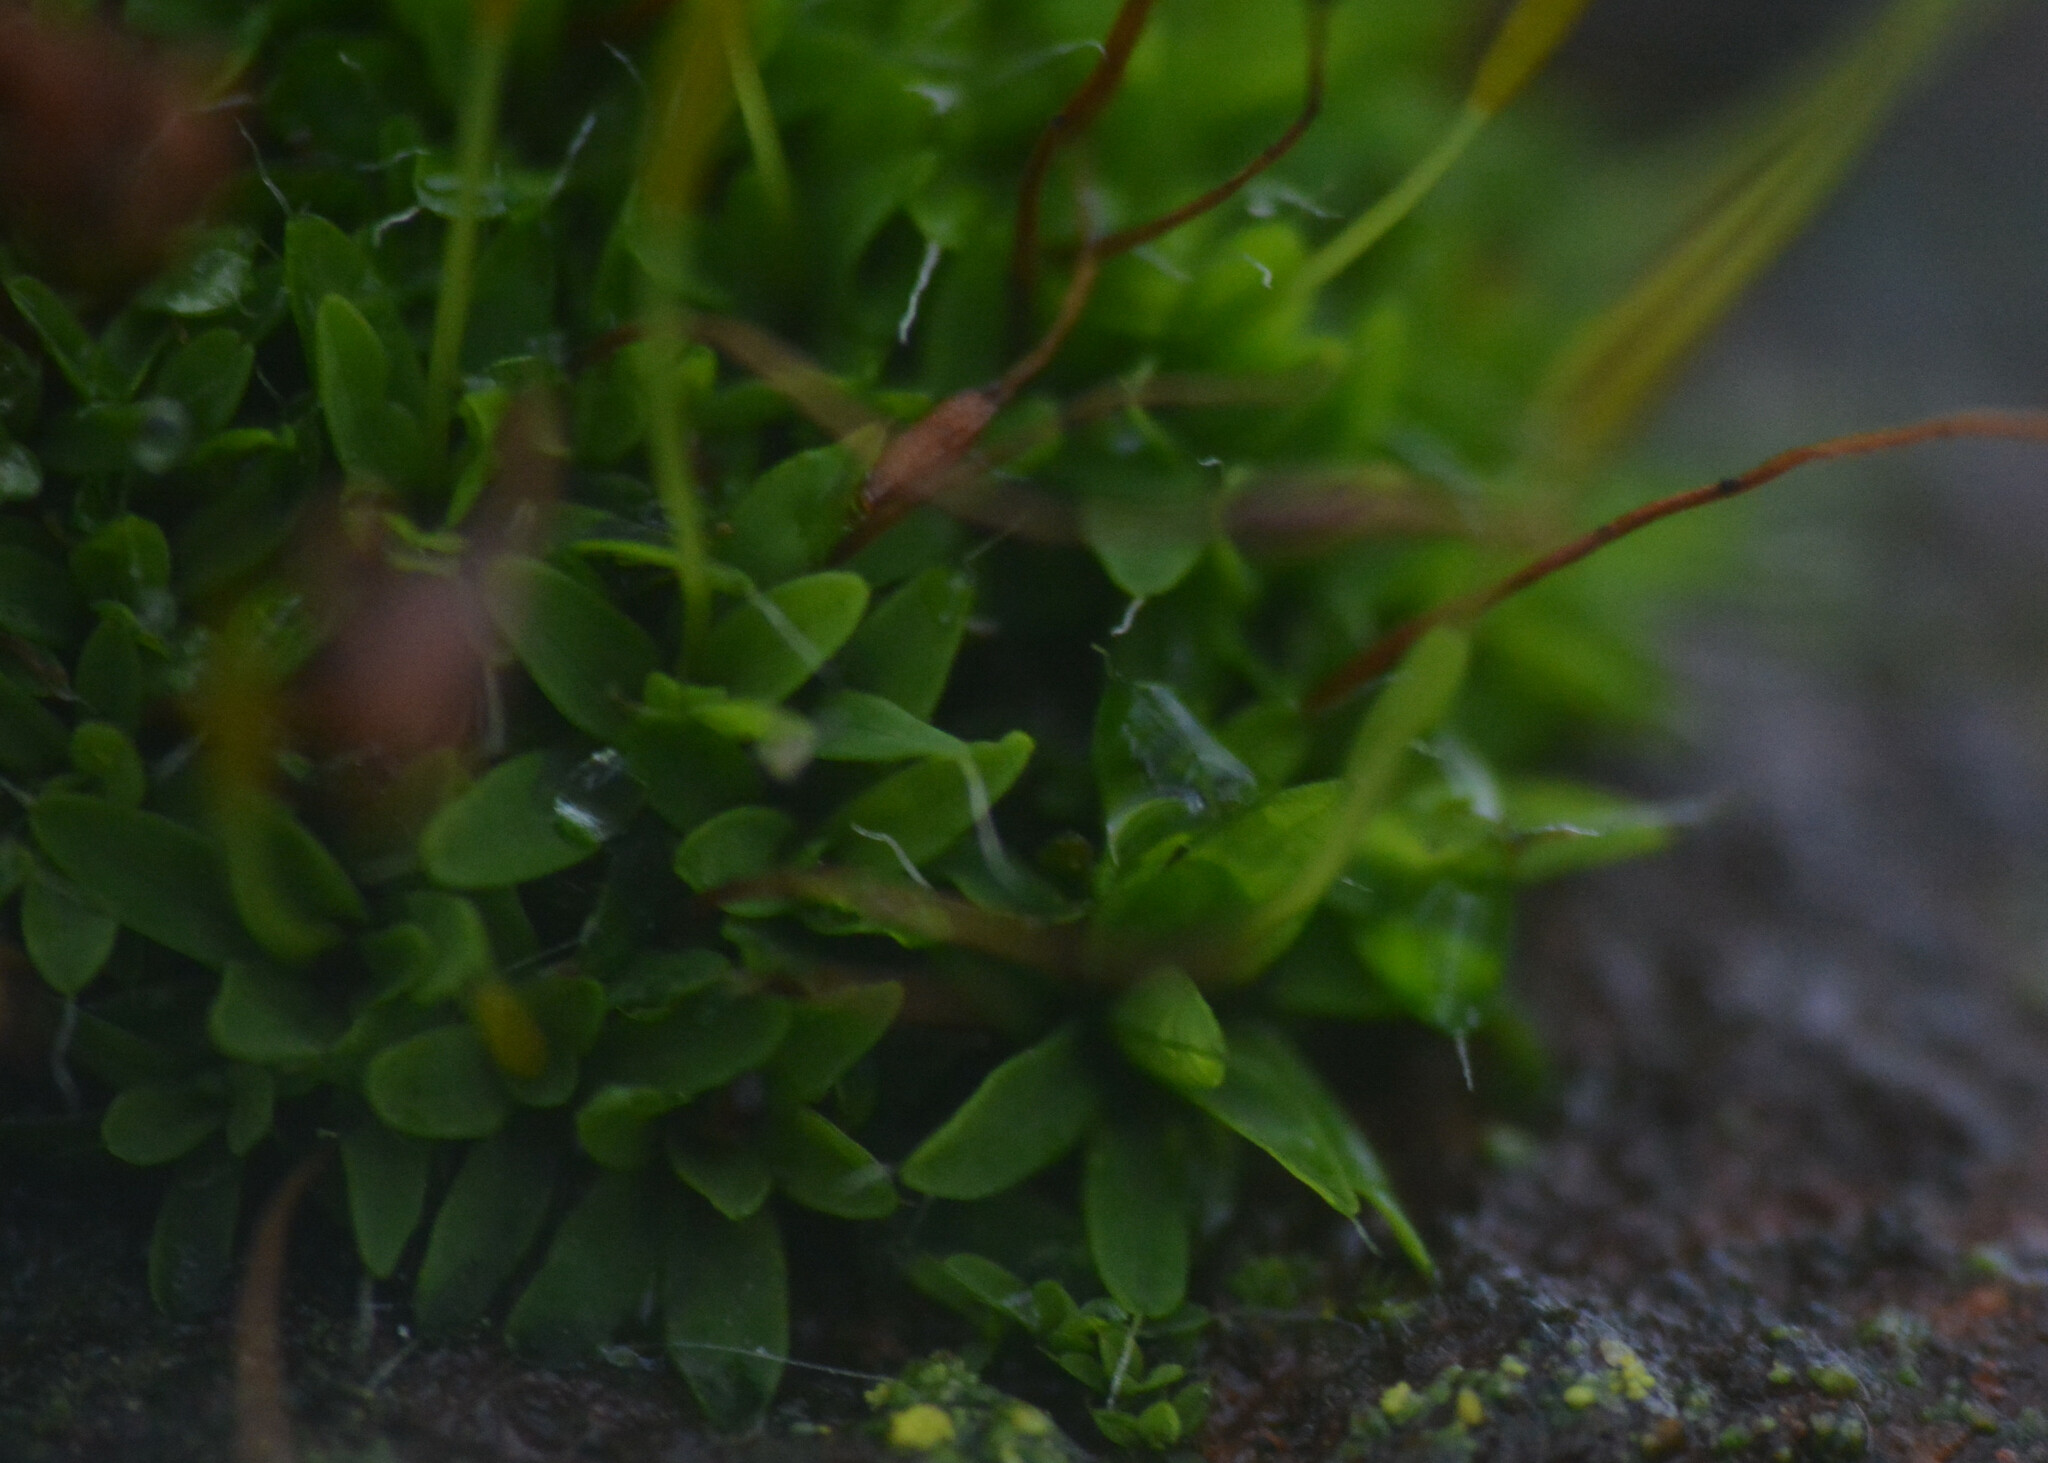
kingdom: Plantae
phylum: Bryophyta
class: Bryopsida
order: Pottiales
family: Pottiaceae
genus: Tortula
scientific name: Tortula muralis
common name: Wall screw-moss
